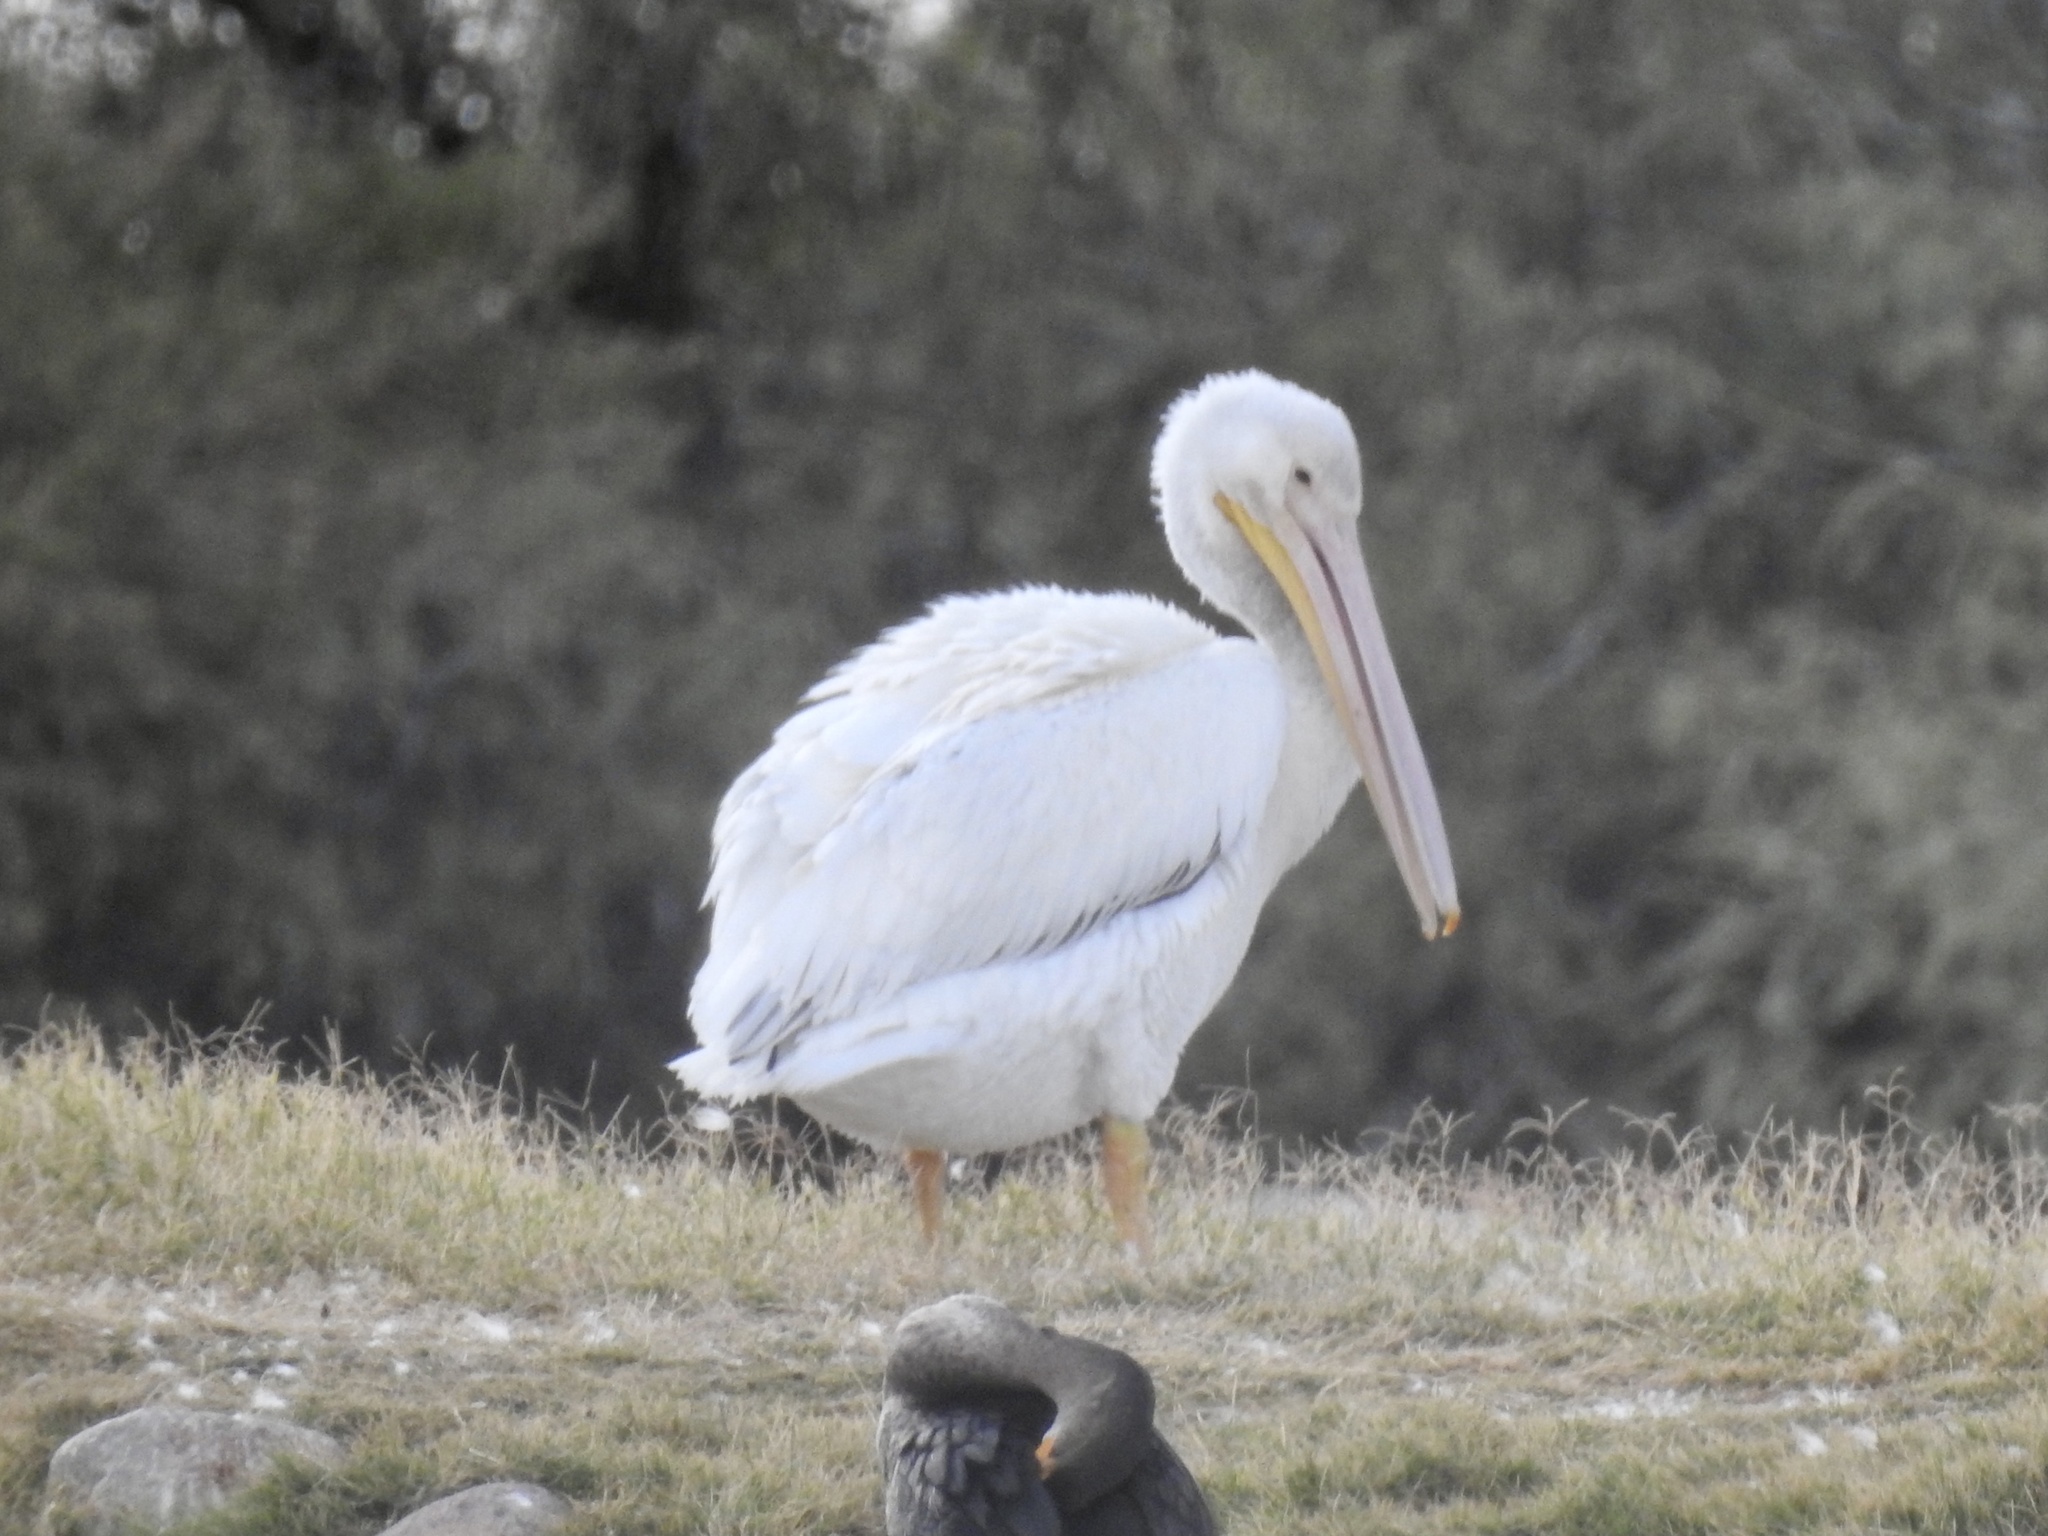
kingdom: Animalia
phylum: Chordata
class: Aves
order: Pelecaniformes
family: Pelecanidae
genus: Pelecanus
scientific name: Pelecanus erythrorhynchos
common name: American white pelican
